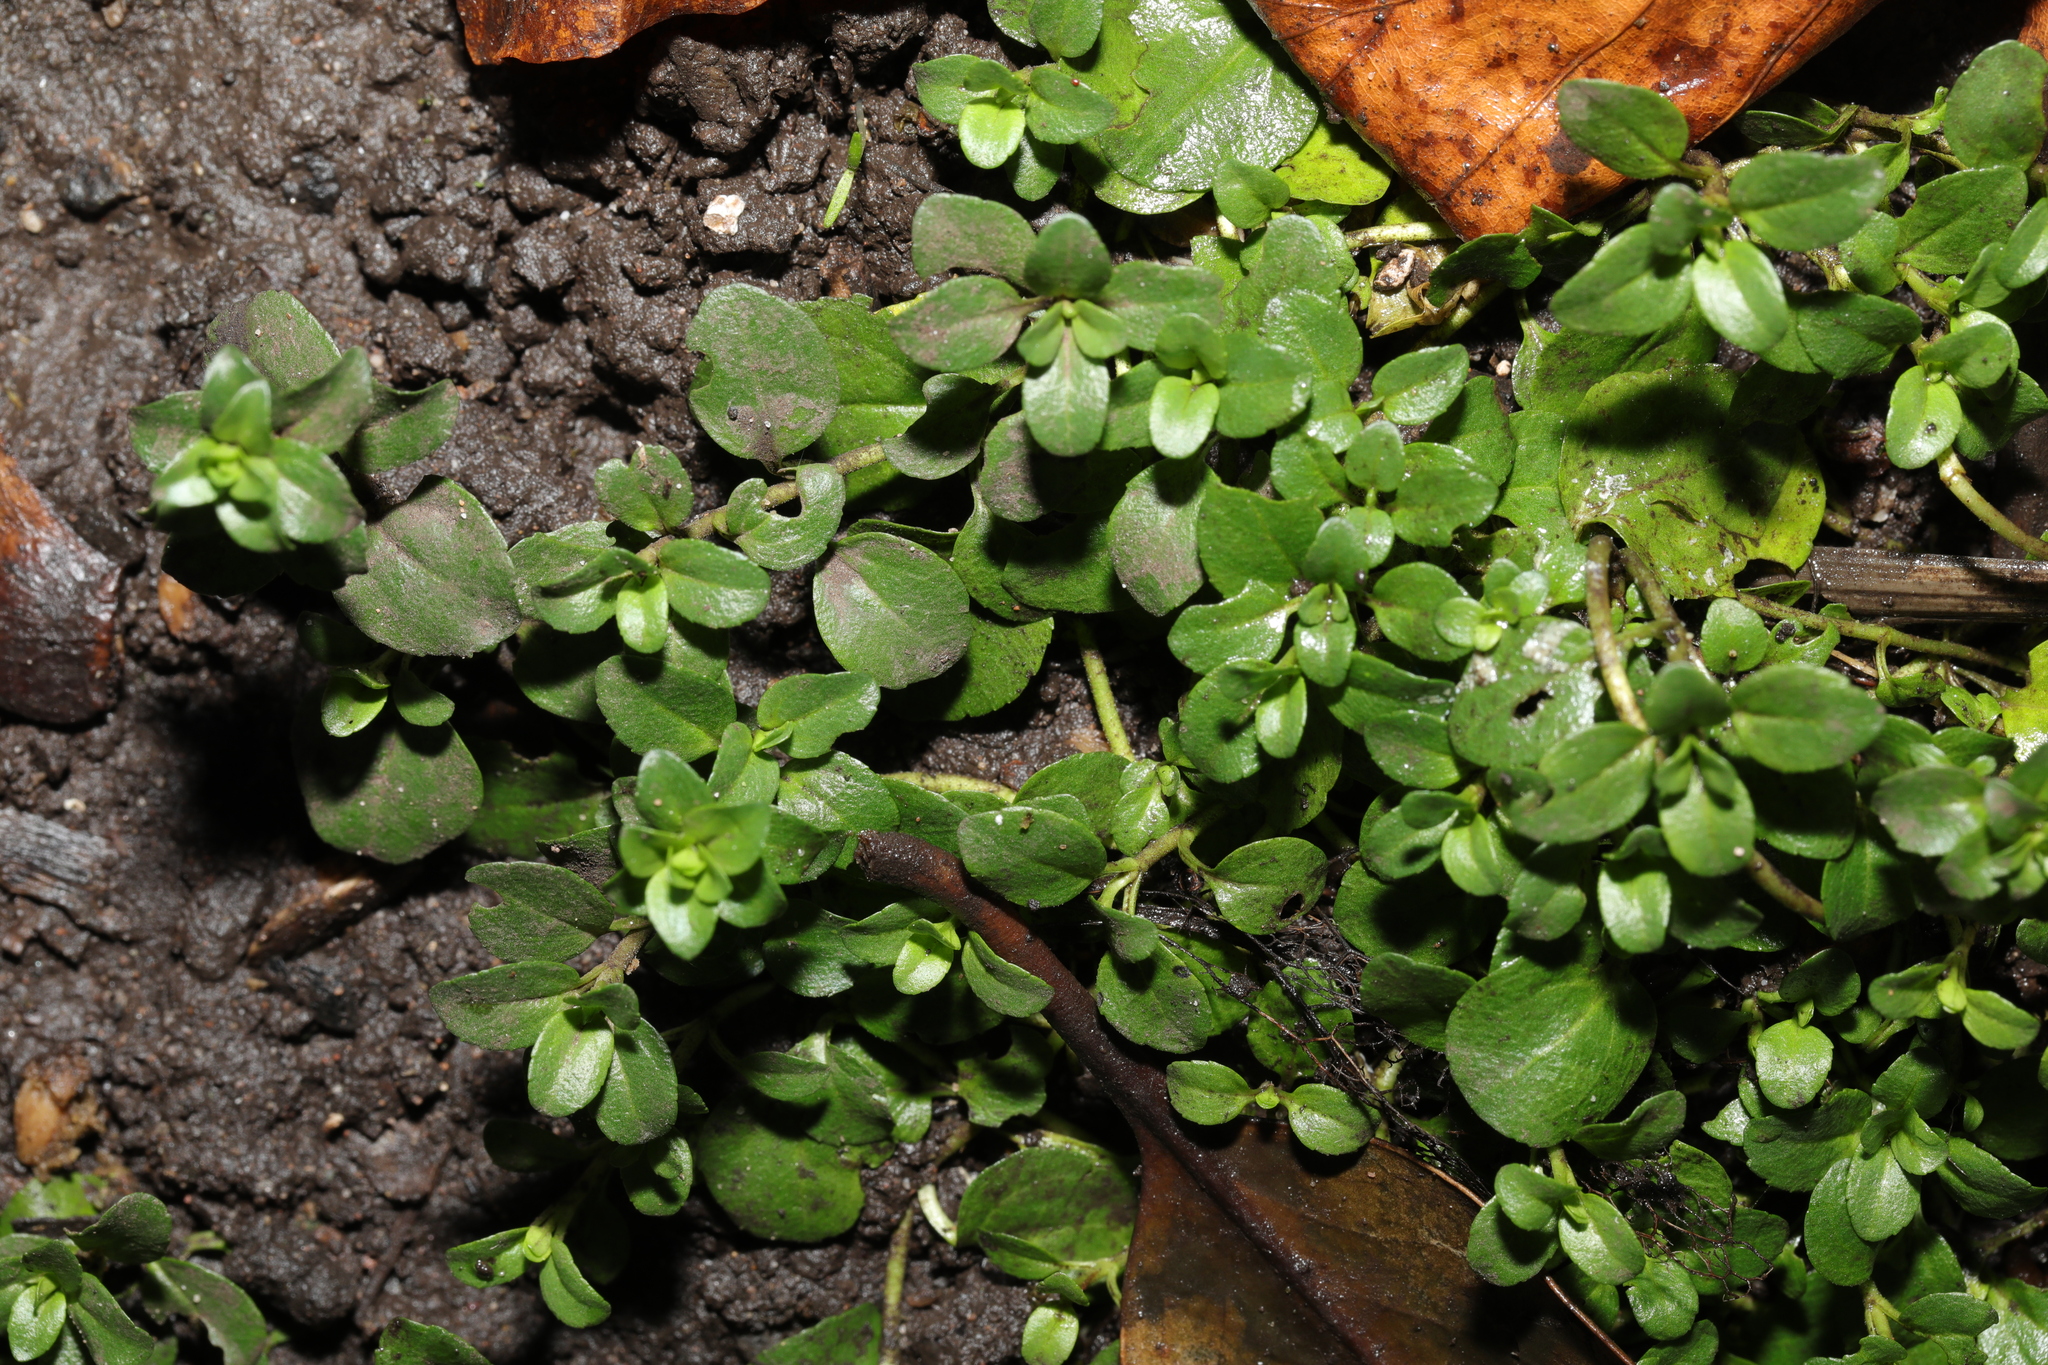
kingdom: Plantae
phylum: Tracheophyta
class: Magnoliopsida
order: Lamiales
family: Plantaginaceae
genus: Veronica
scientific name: Veronica serpyllifolia
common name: Thyme-leaved speedwell
